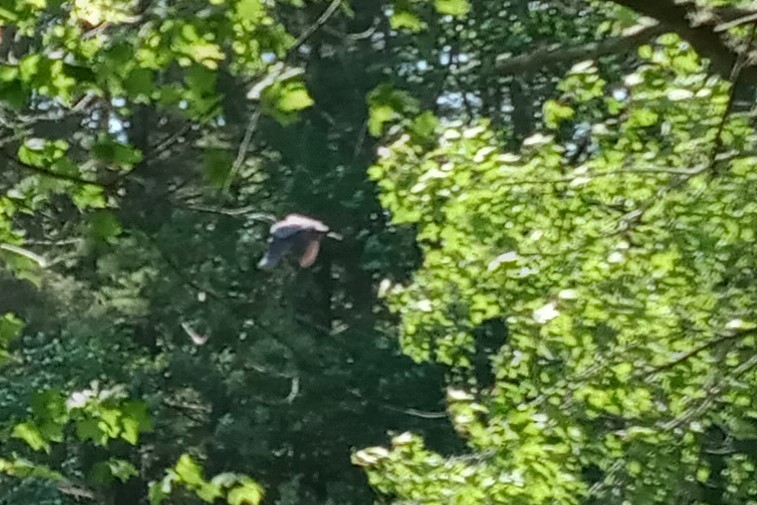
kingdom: Animalia
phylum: Chordata
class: Aves
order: Pelecaniformes
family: Ardeidae
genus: Ardea
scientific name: Ardea herodias
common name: Great blue heron
